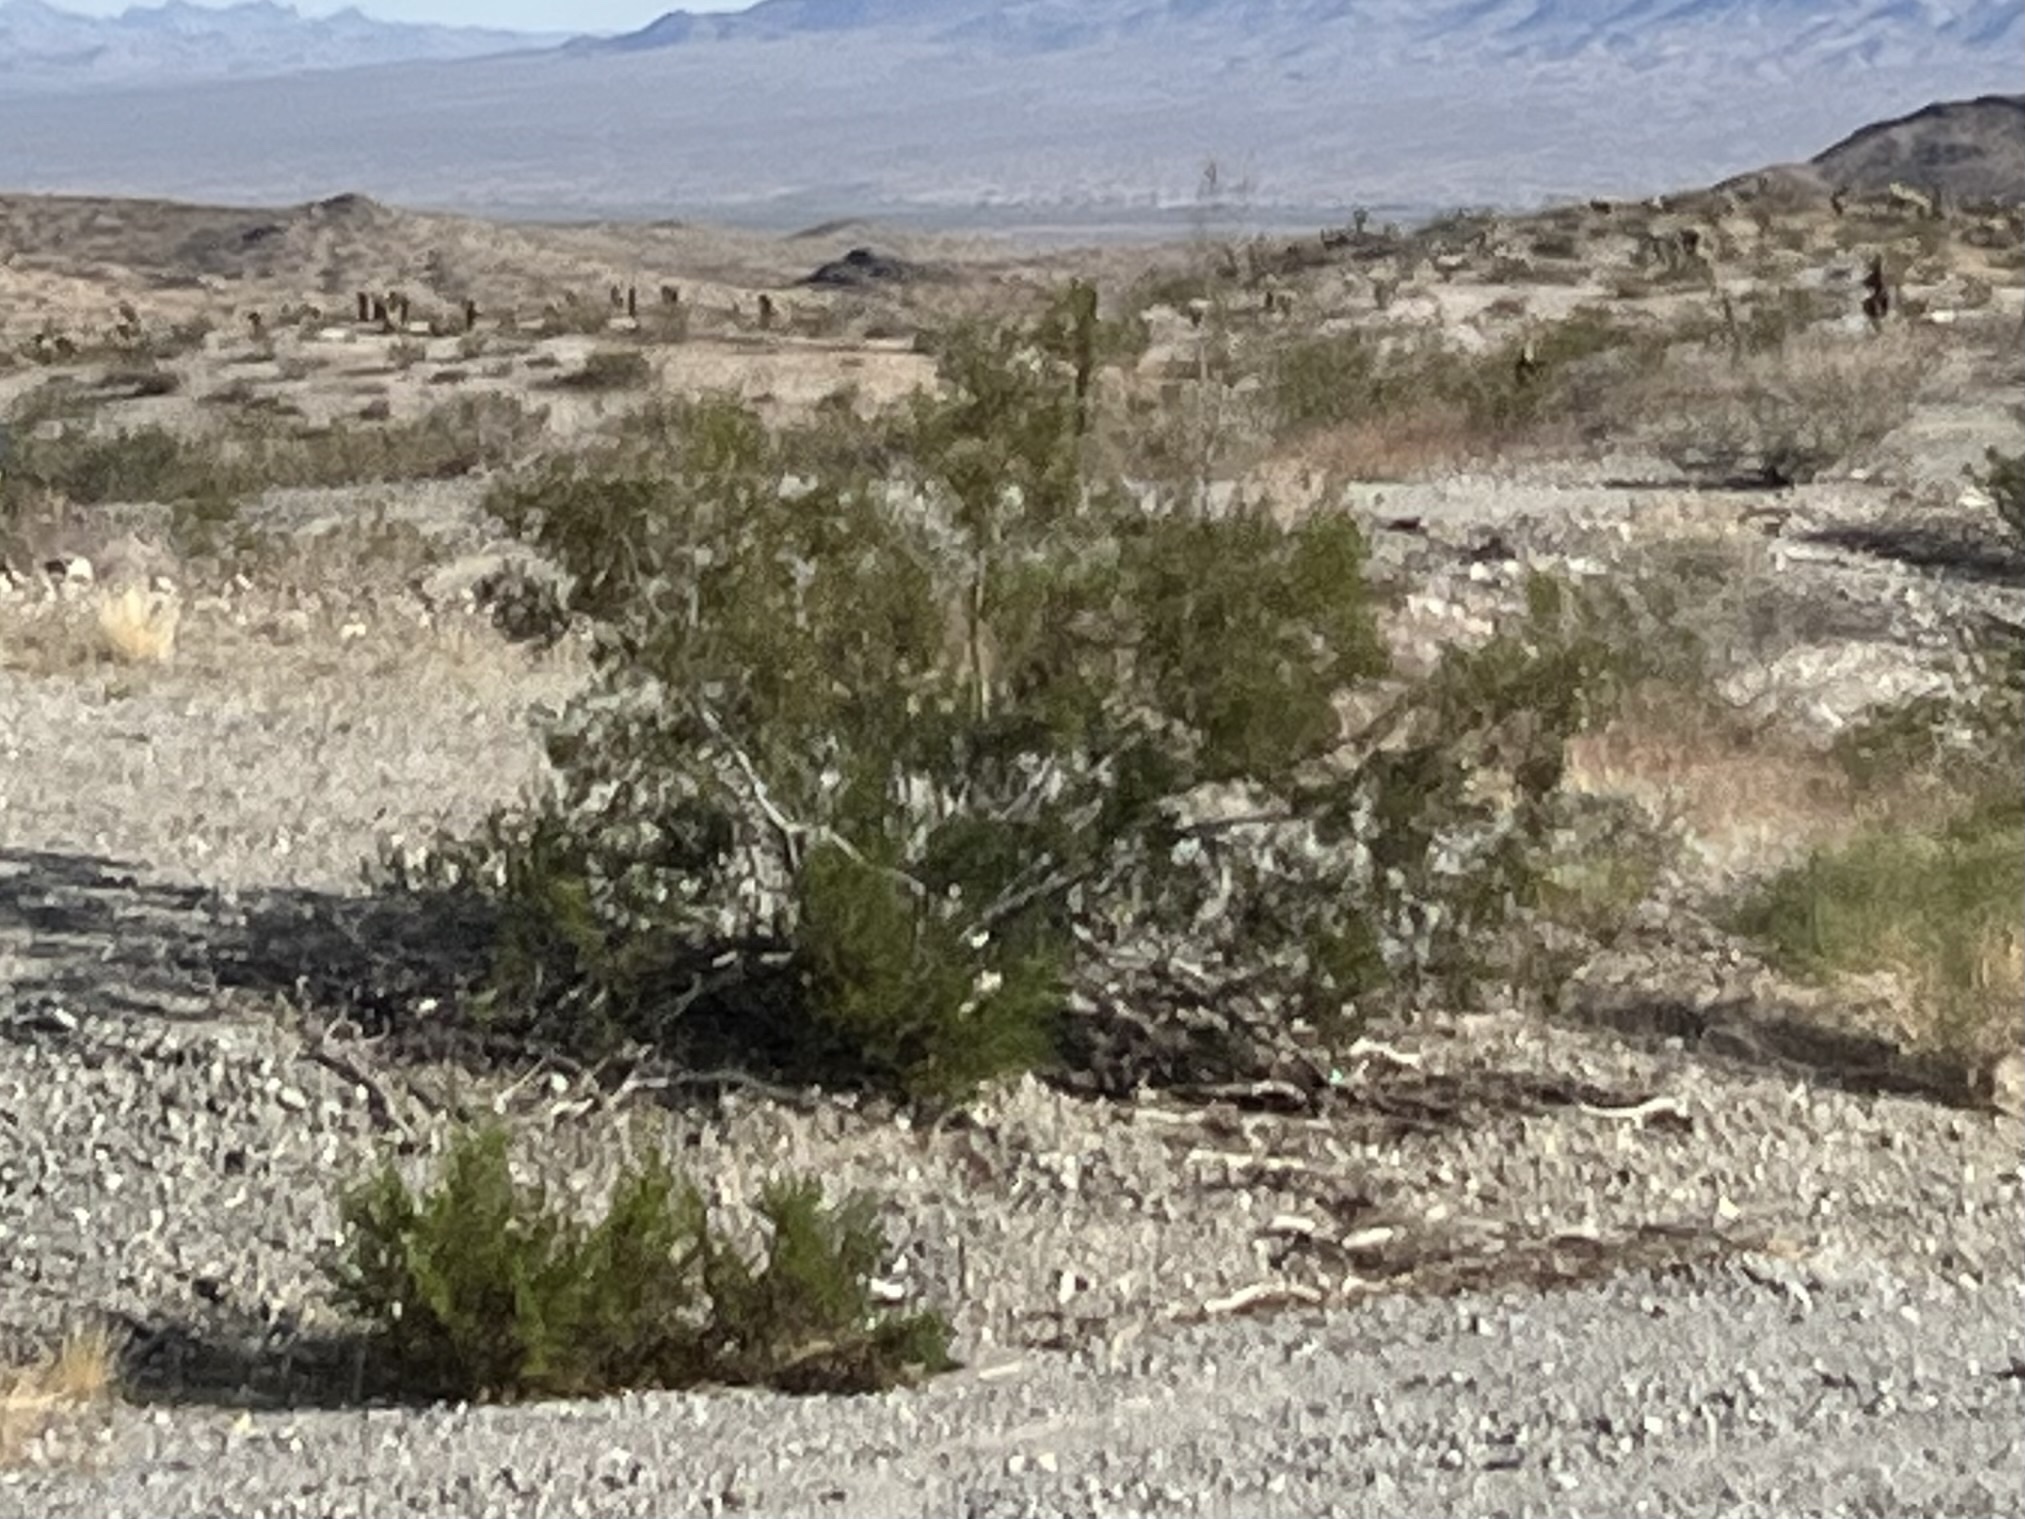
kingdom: Plantae
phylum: Tracheophyta
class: Magnoliopsida
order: Zygophyllales
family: Zygophyllaceae
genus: Larrea
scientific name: Larrea tridentata
